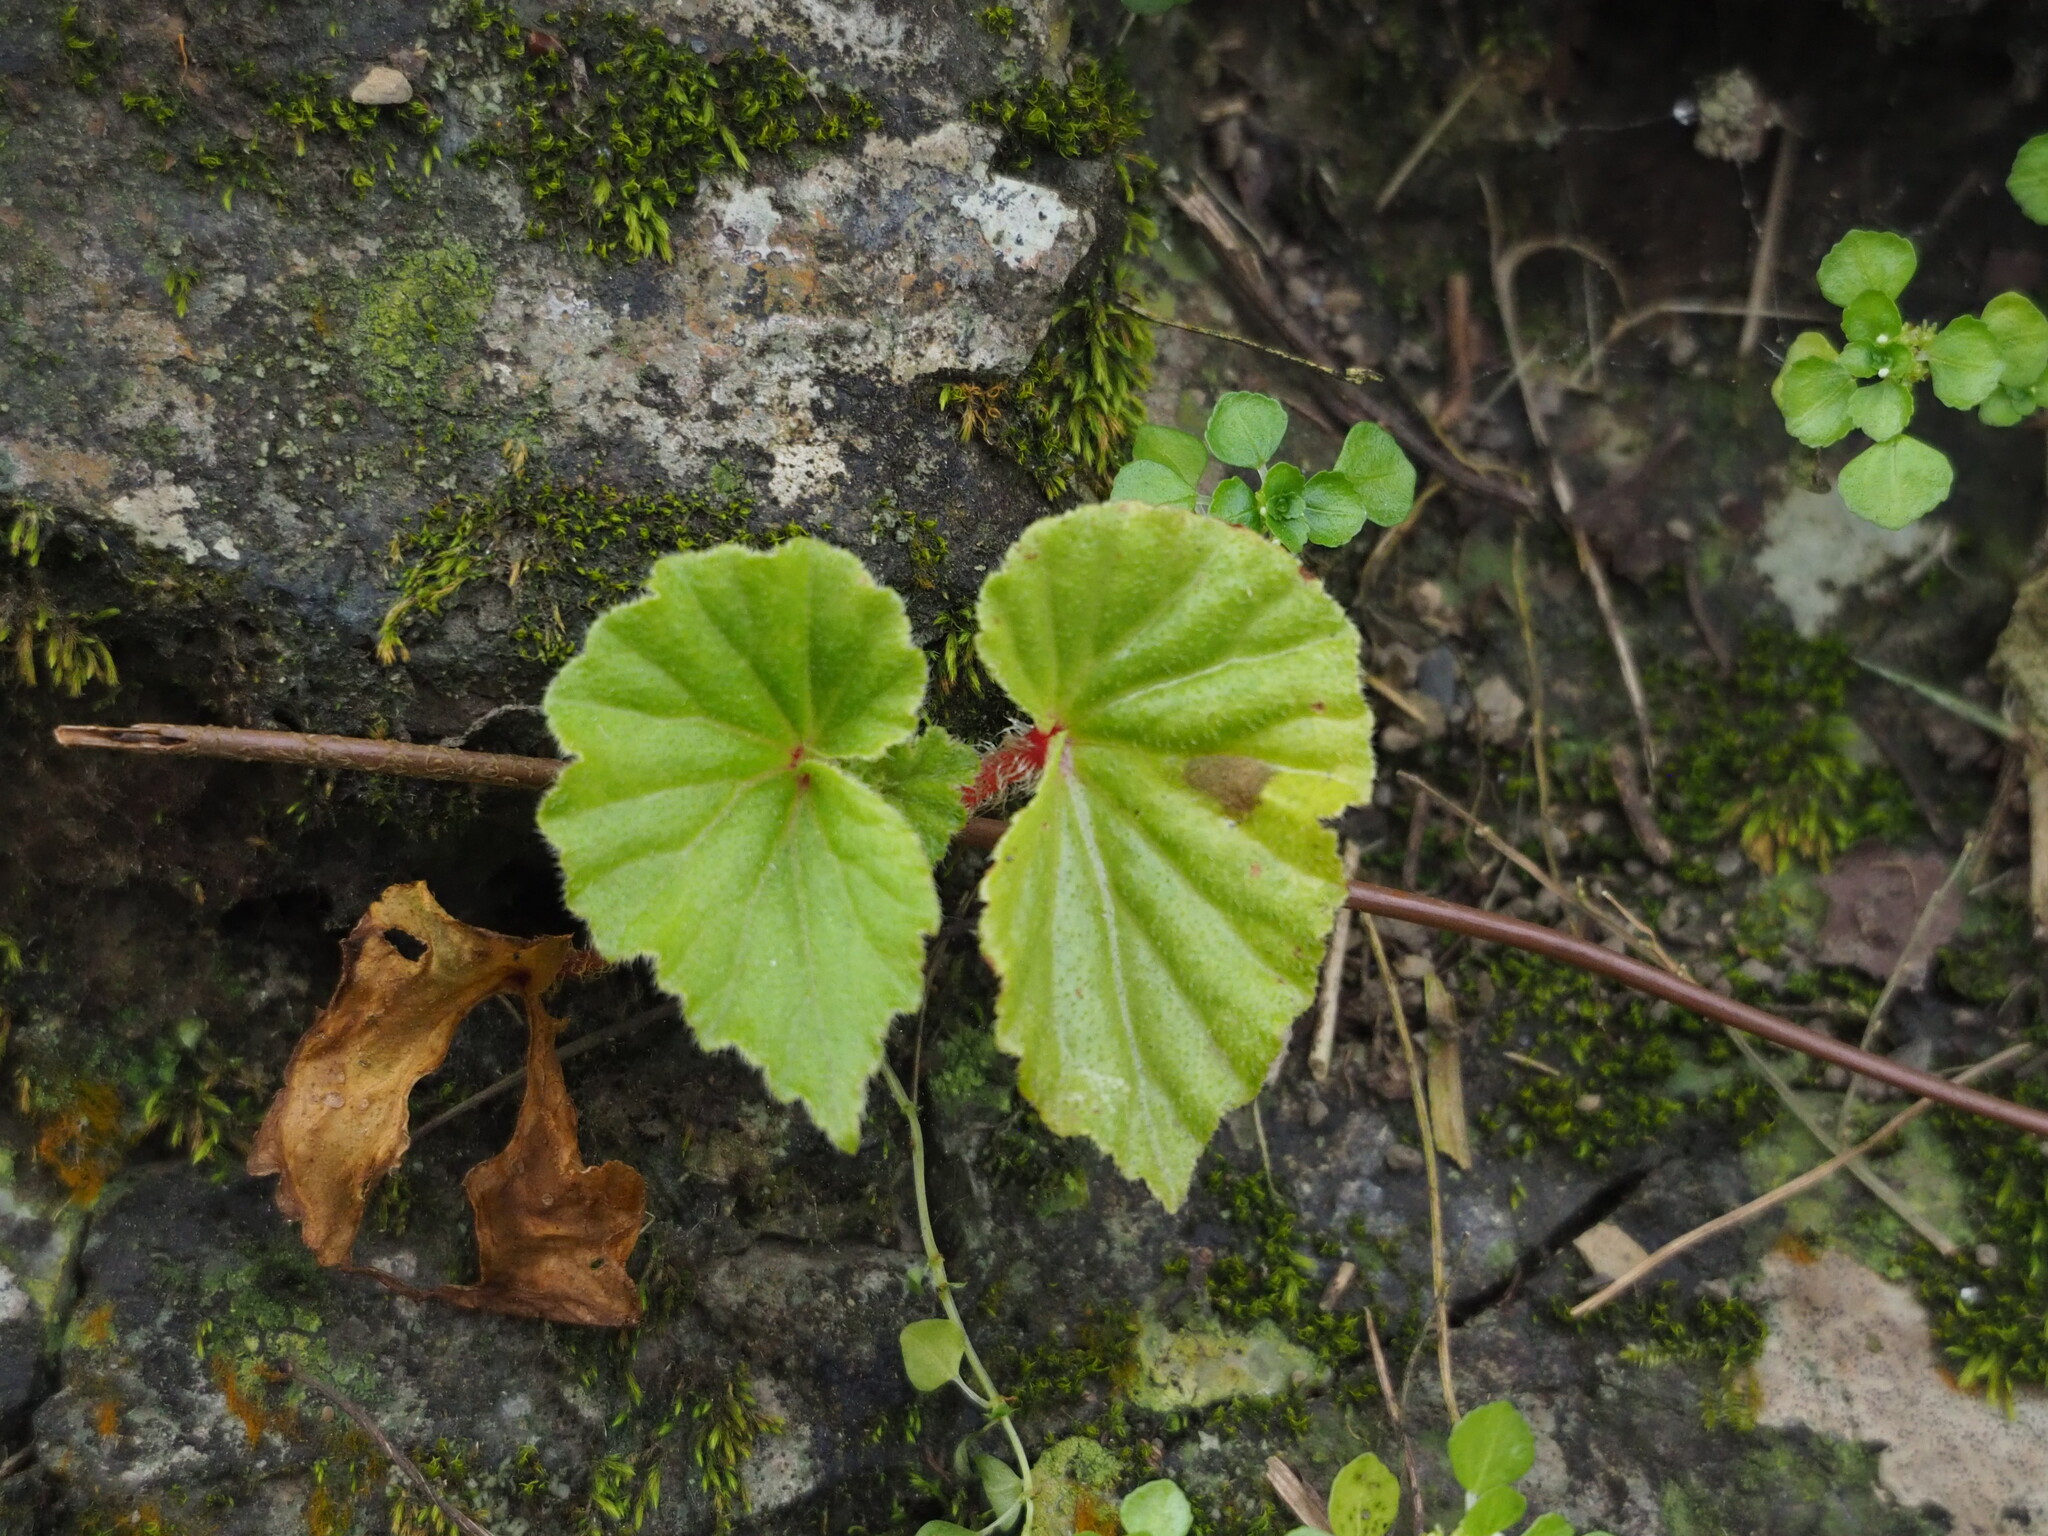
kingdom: Plantae
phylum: Tracheophyta
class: Magnoliopsida
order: Cucurbitales
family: Begoniaceae
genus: Begonia
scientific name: Begonia hirtella
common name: Brazilian begonia
